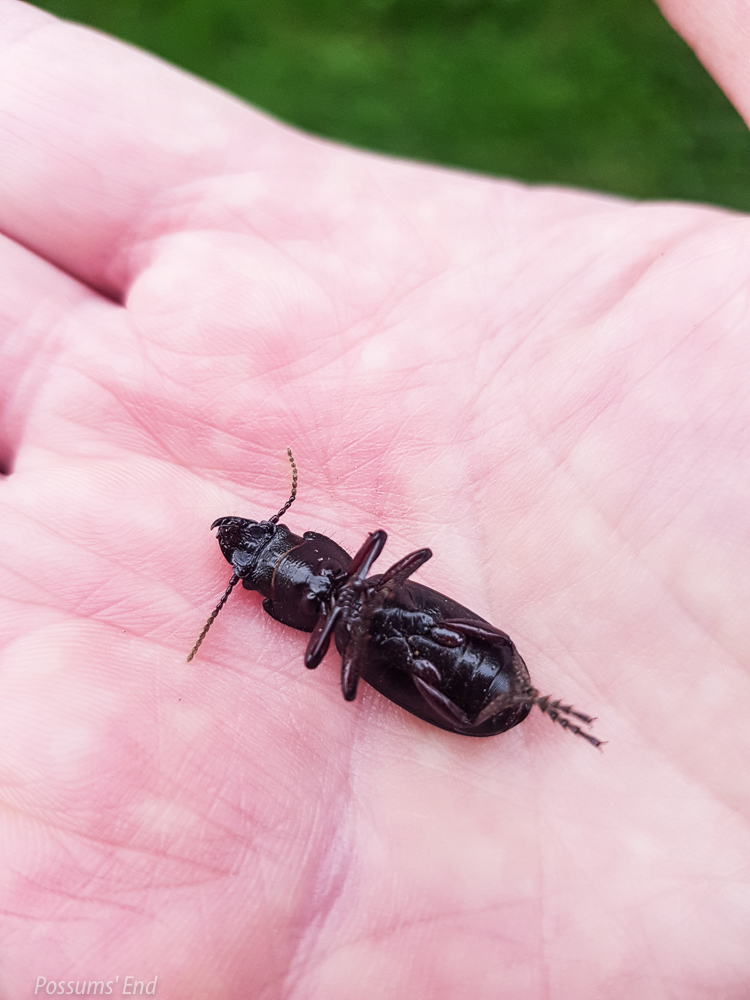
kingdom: Animalia
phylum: Arthropoda
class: Insecta
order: Coleoptera
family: Carabidae
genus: Mecodema
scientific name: Mecodema sculpturatum
